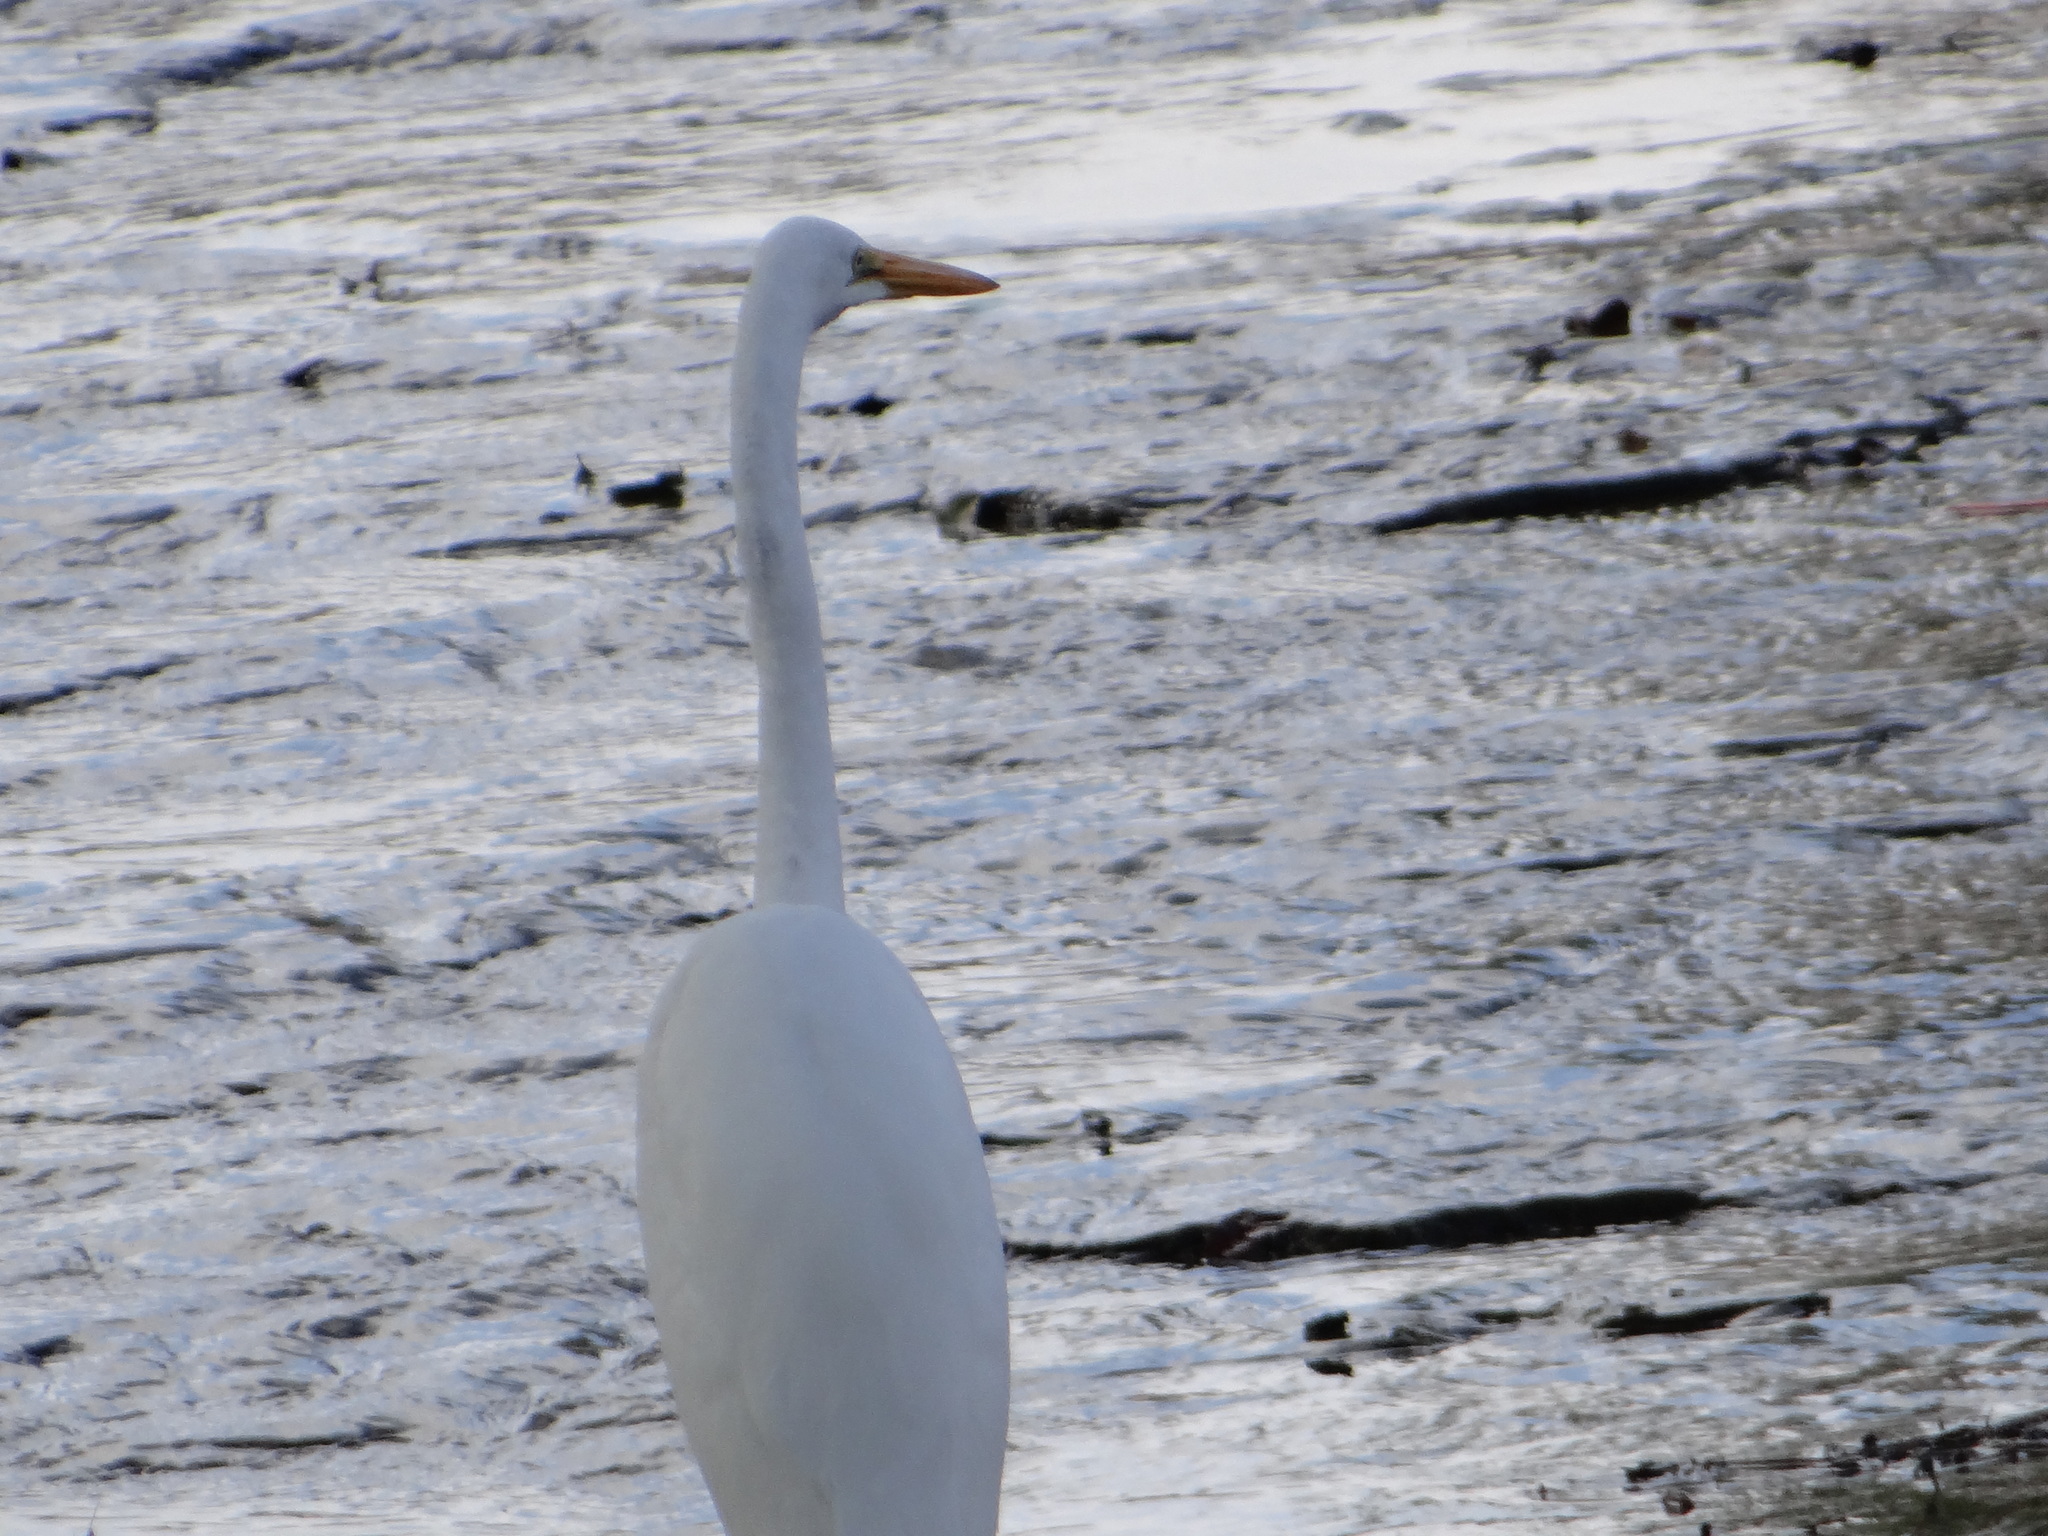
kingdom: Animalia
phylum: Chordata
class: Aves
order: Pelecaniformes
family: Ardeidae
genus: Ardea
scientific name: Ardea alba
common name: Great egret
